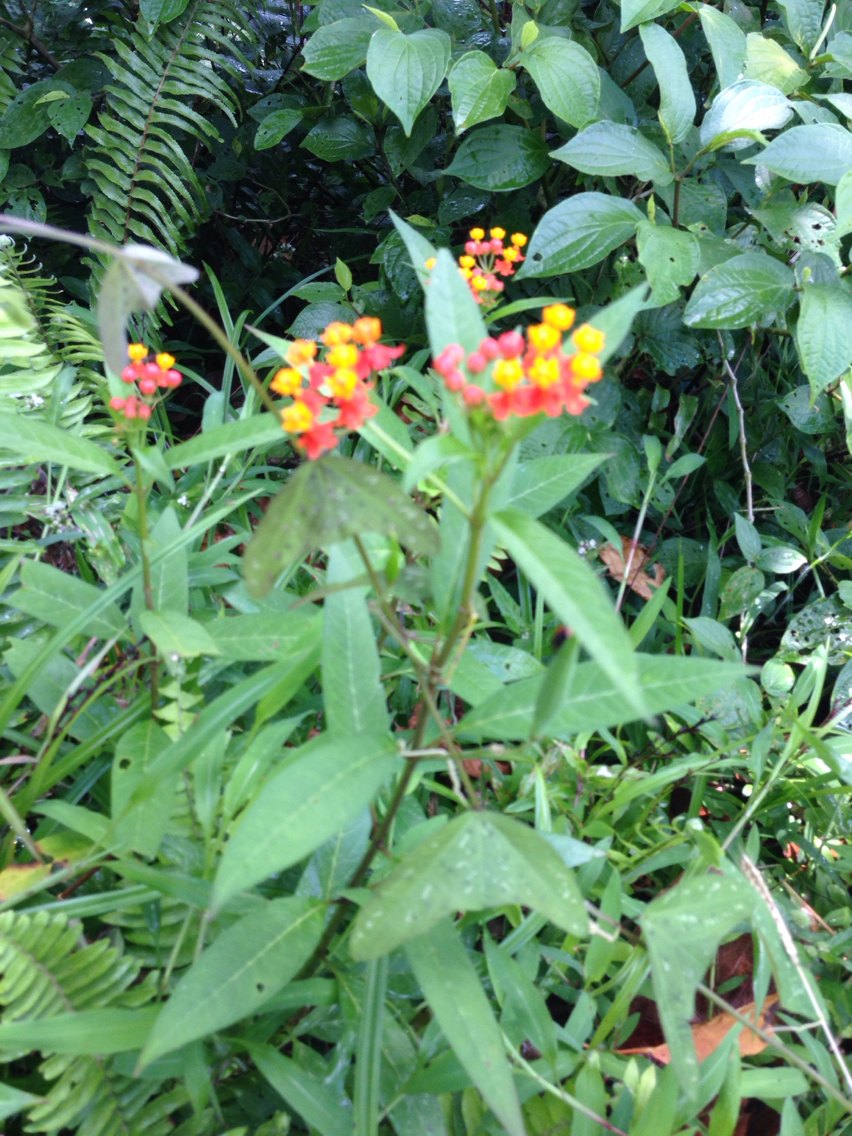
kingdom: Plantae
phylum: Tracheophyta
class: Magnoliopsida
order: Gentianales
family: Apocynaceae
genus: Asclepias
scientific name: Asclepias curassavica
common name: Bloodflower
